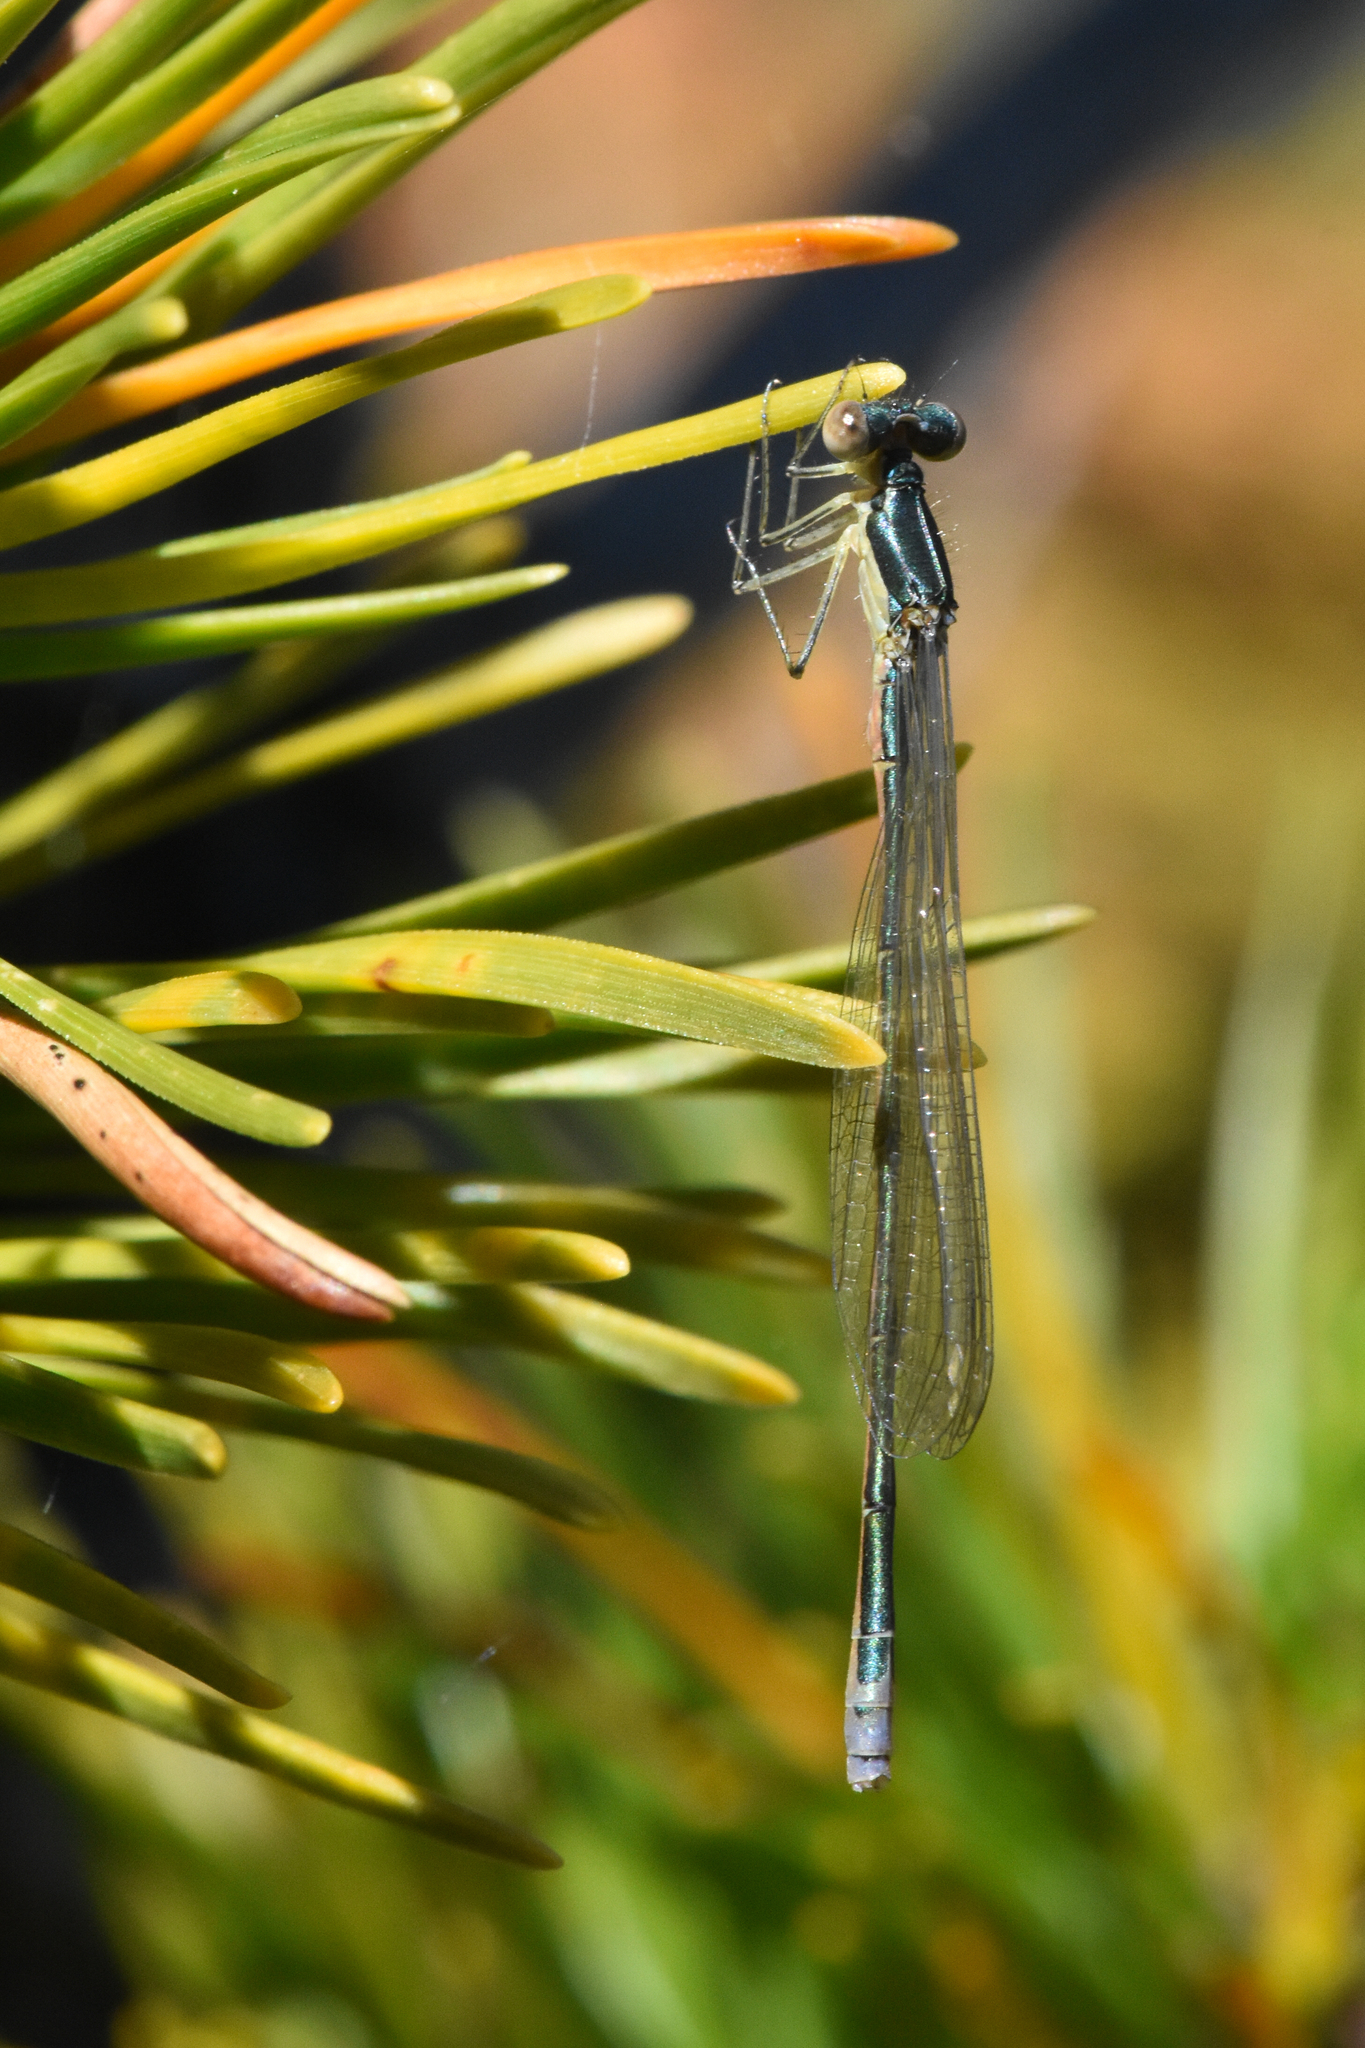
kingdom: Animalia
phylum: Arthropoda
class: Insecta
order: Odonata
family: Coenagrionidae
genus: Nehalennia
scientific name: Nehalennia irene
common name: Sedge sprite
